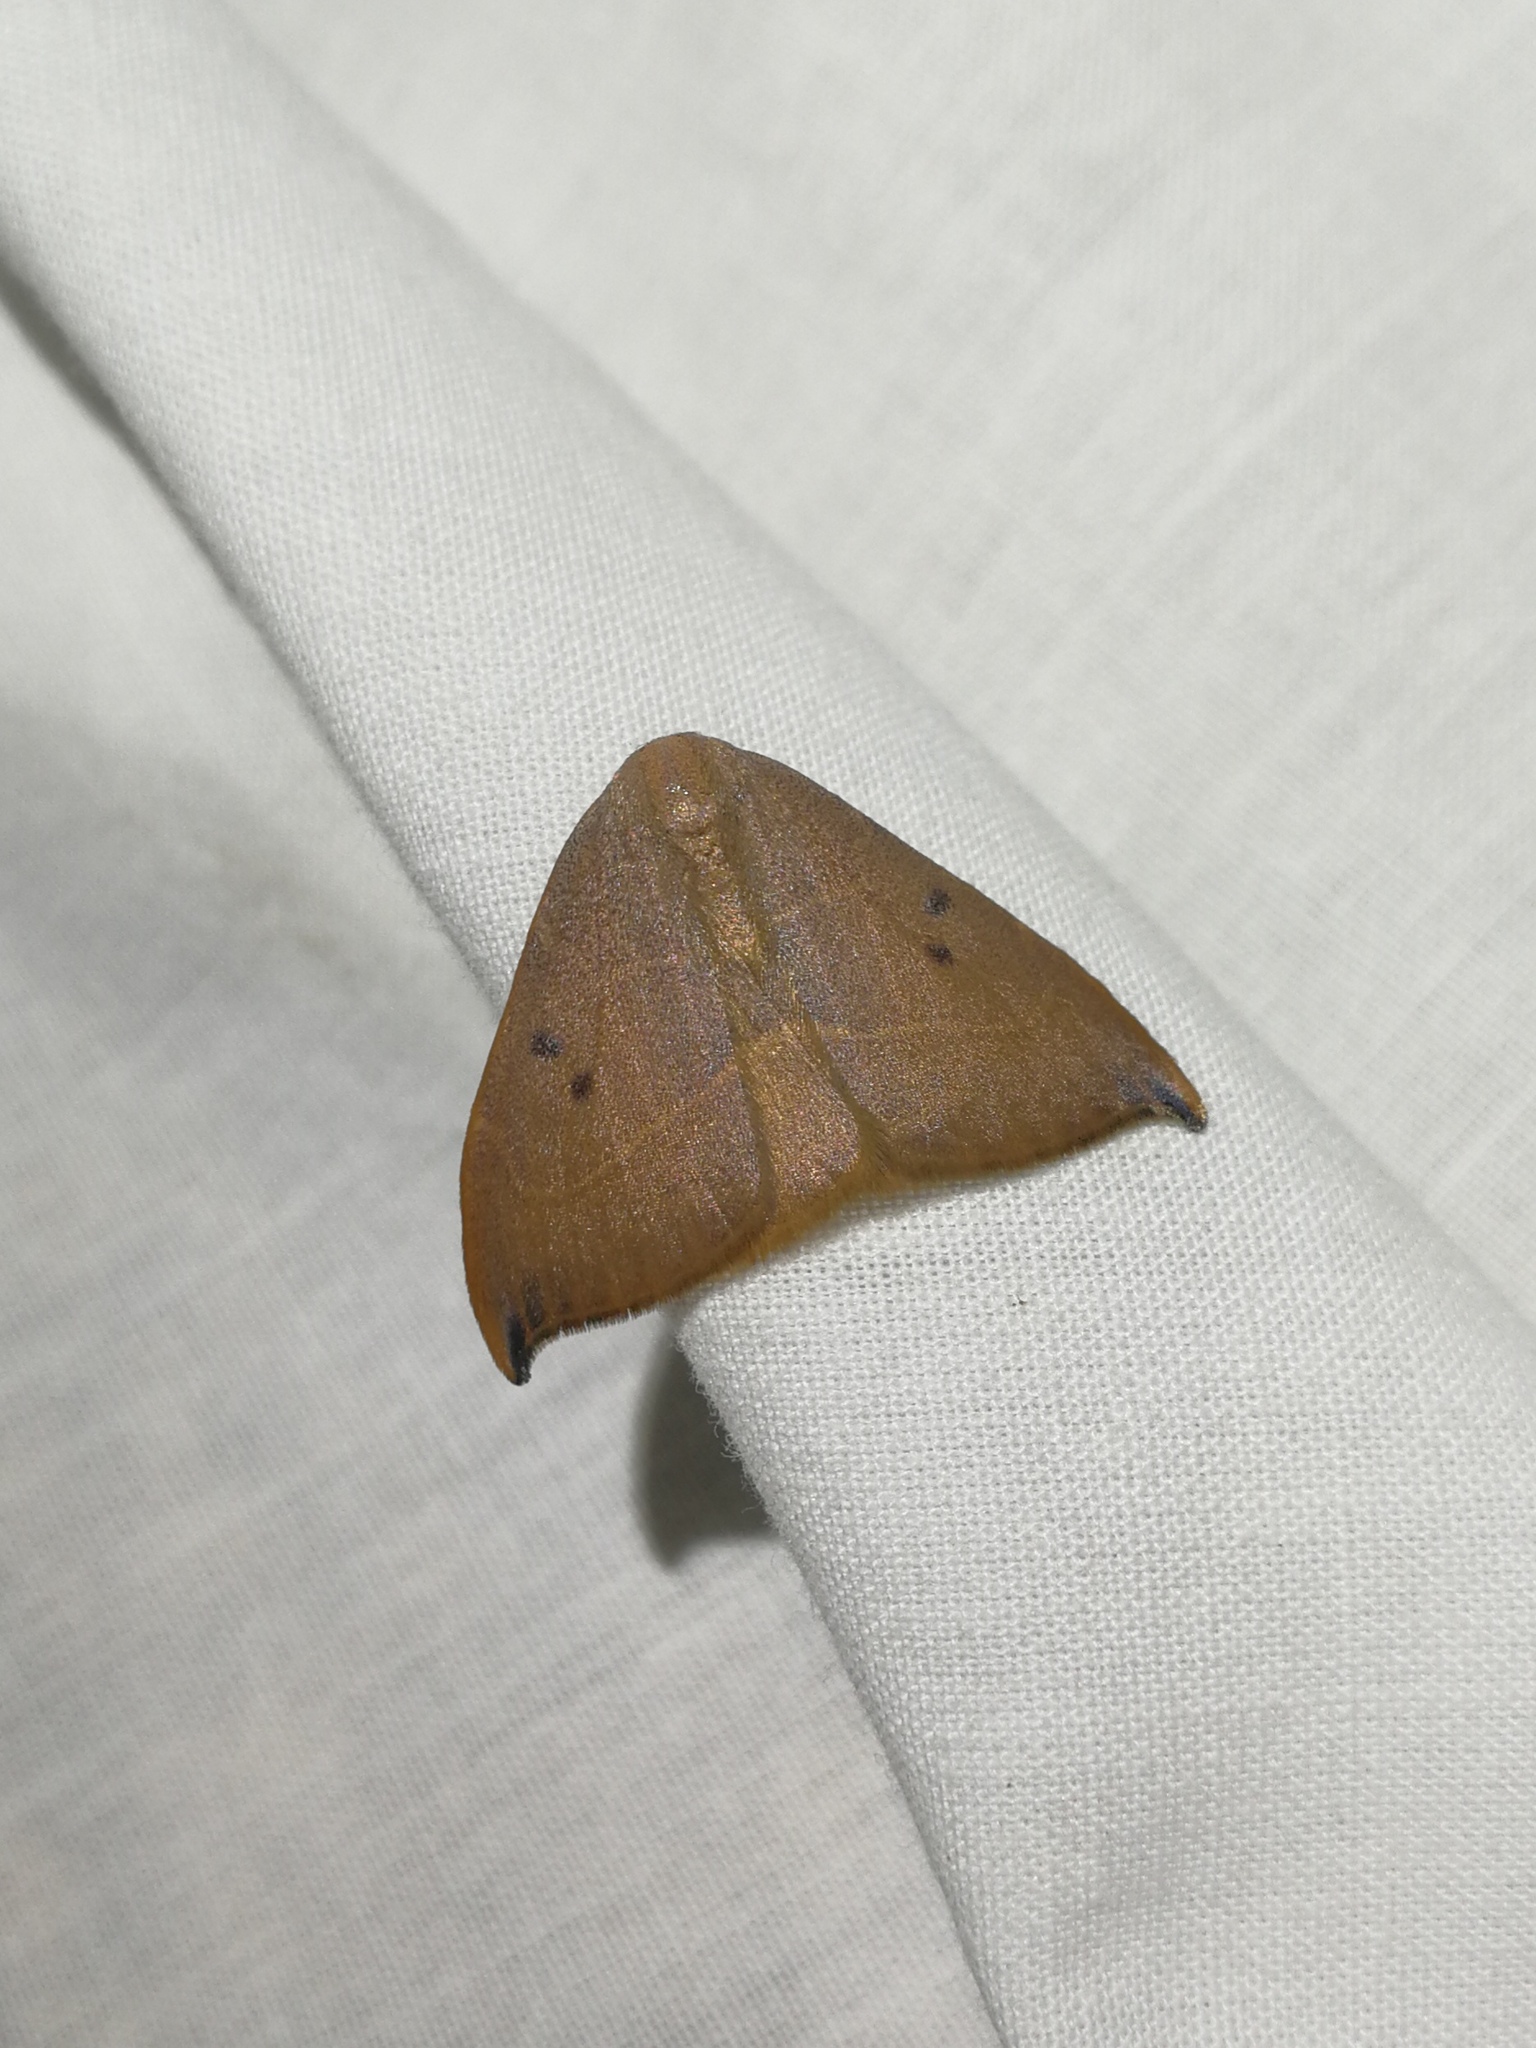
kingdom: Animalia
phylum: Arthropoda
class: Insecta
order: Lepidoptera
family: Drepanidae
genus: Watsonalla
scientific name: Watsonalla uncinula
